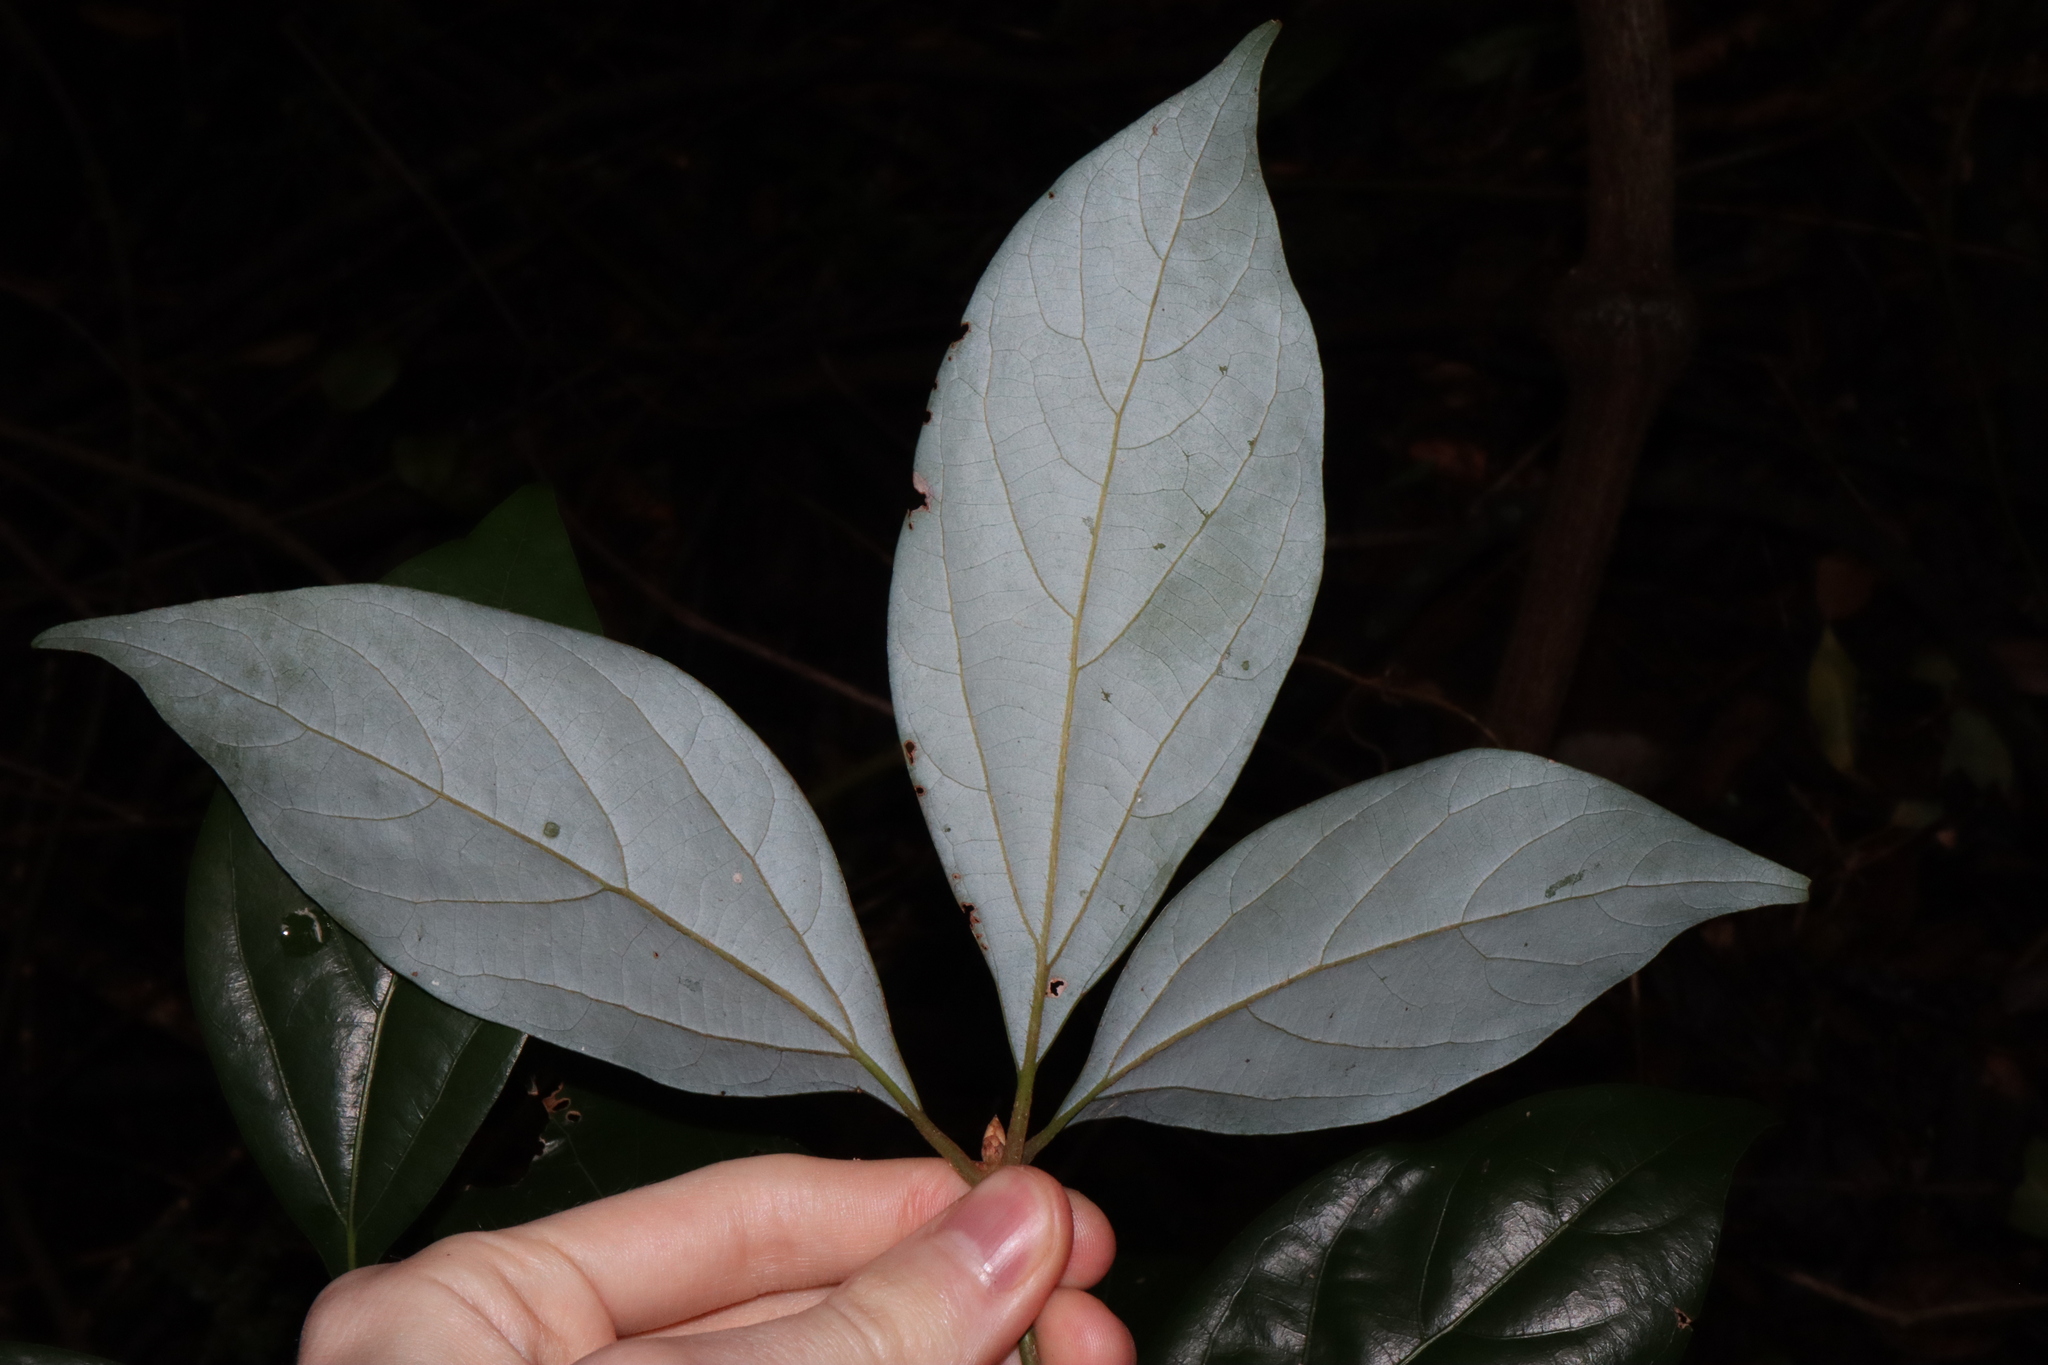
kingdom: Plantae
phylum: Tracheophyta
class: Magnoliopsida
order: Laurales
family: Lauraceae
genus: Neolitsea
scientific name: Neolitsea dealbata
